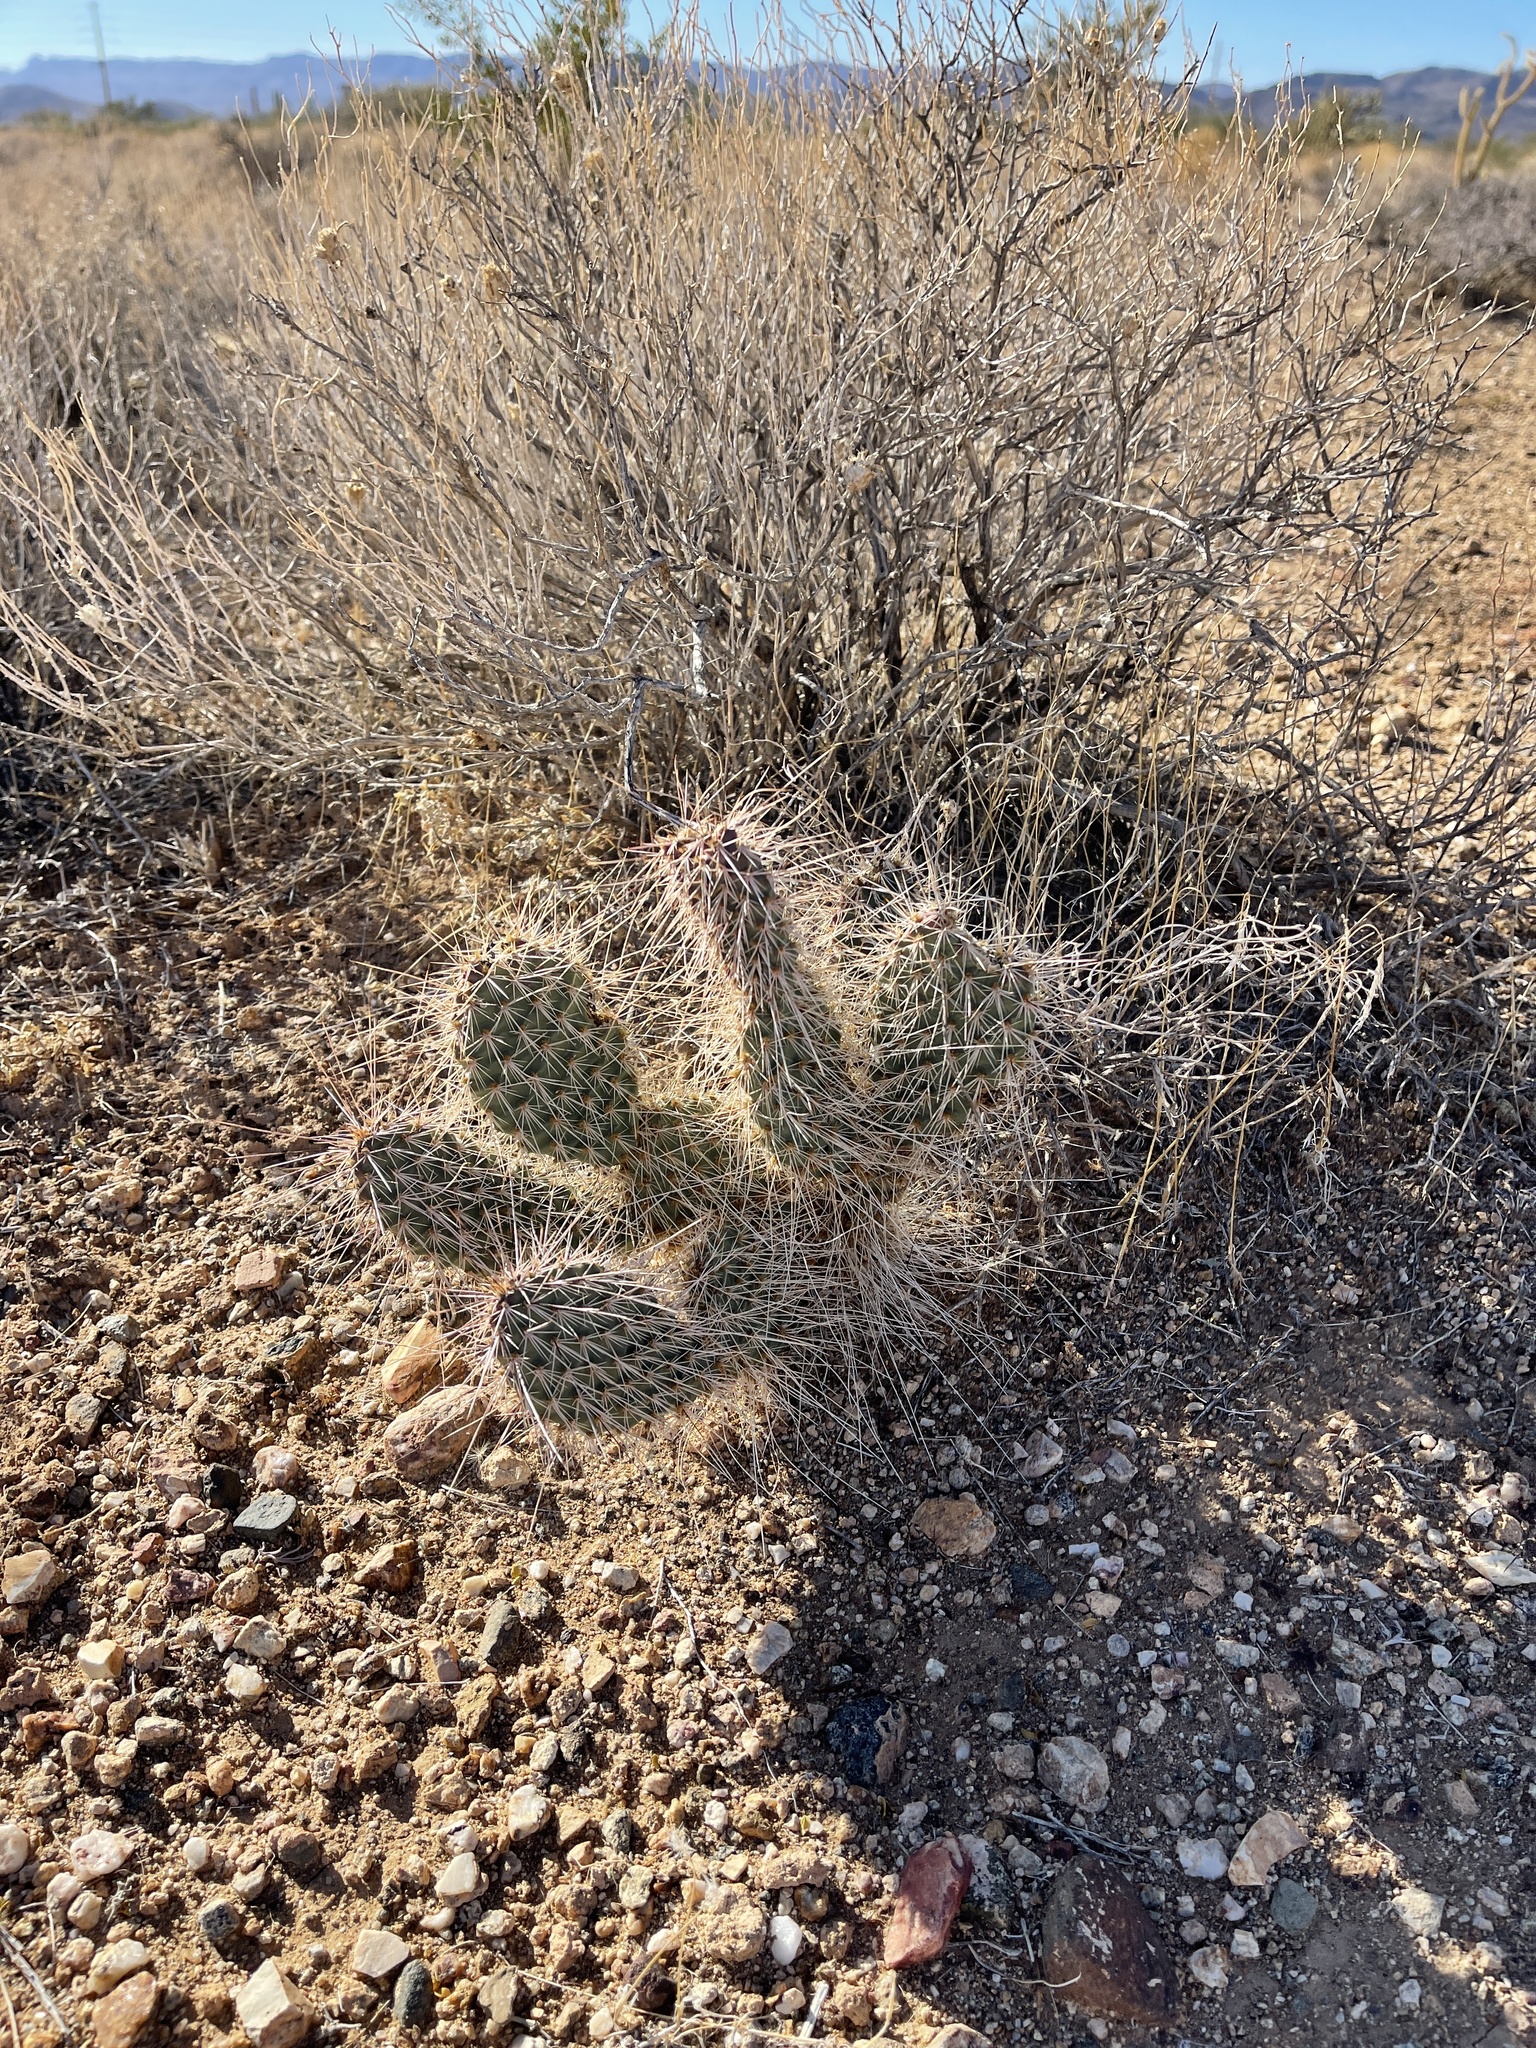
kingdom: Plantae
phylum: Tracheophyta
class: Magnoliopsida
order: Caryophyllales
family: Cactaceae
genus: Opuntia
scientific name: Opuntia polyacantha
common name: Plains prickly-pear
